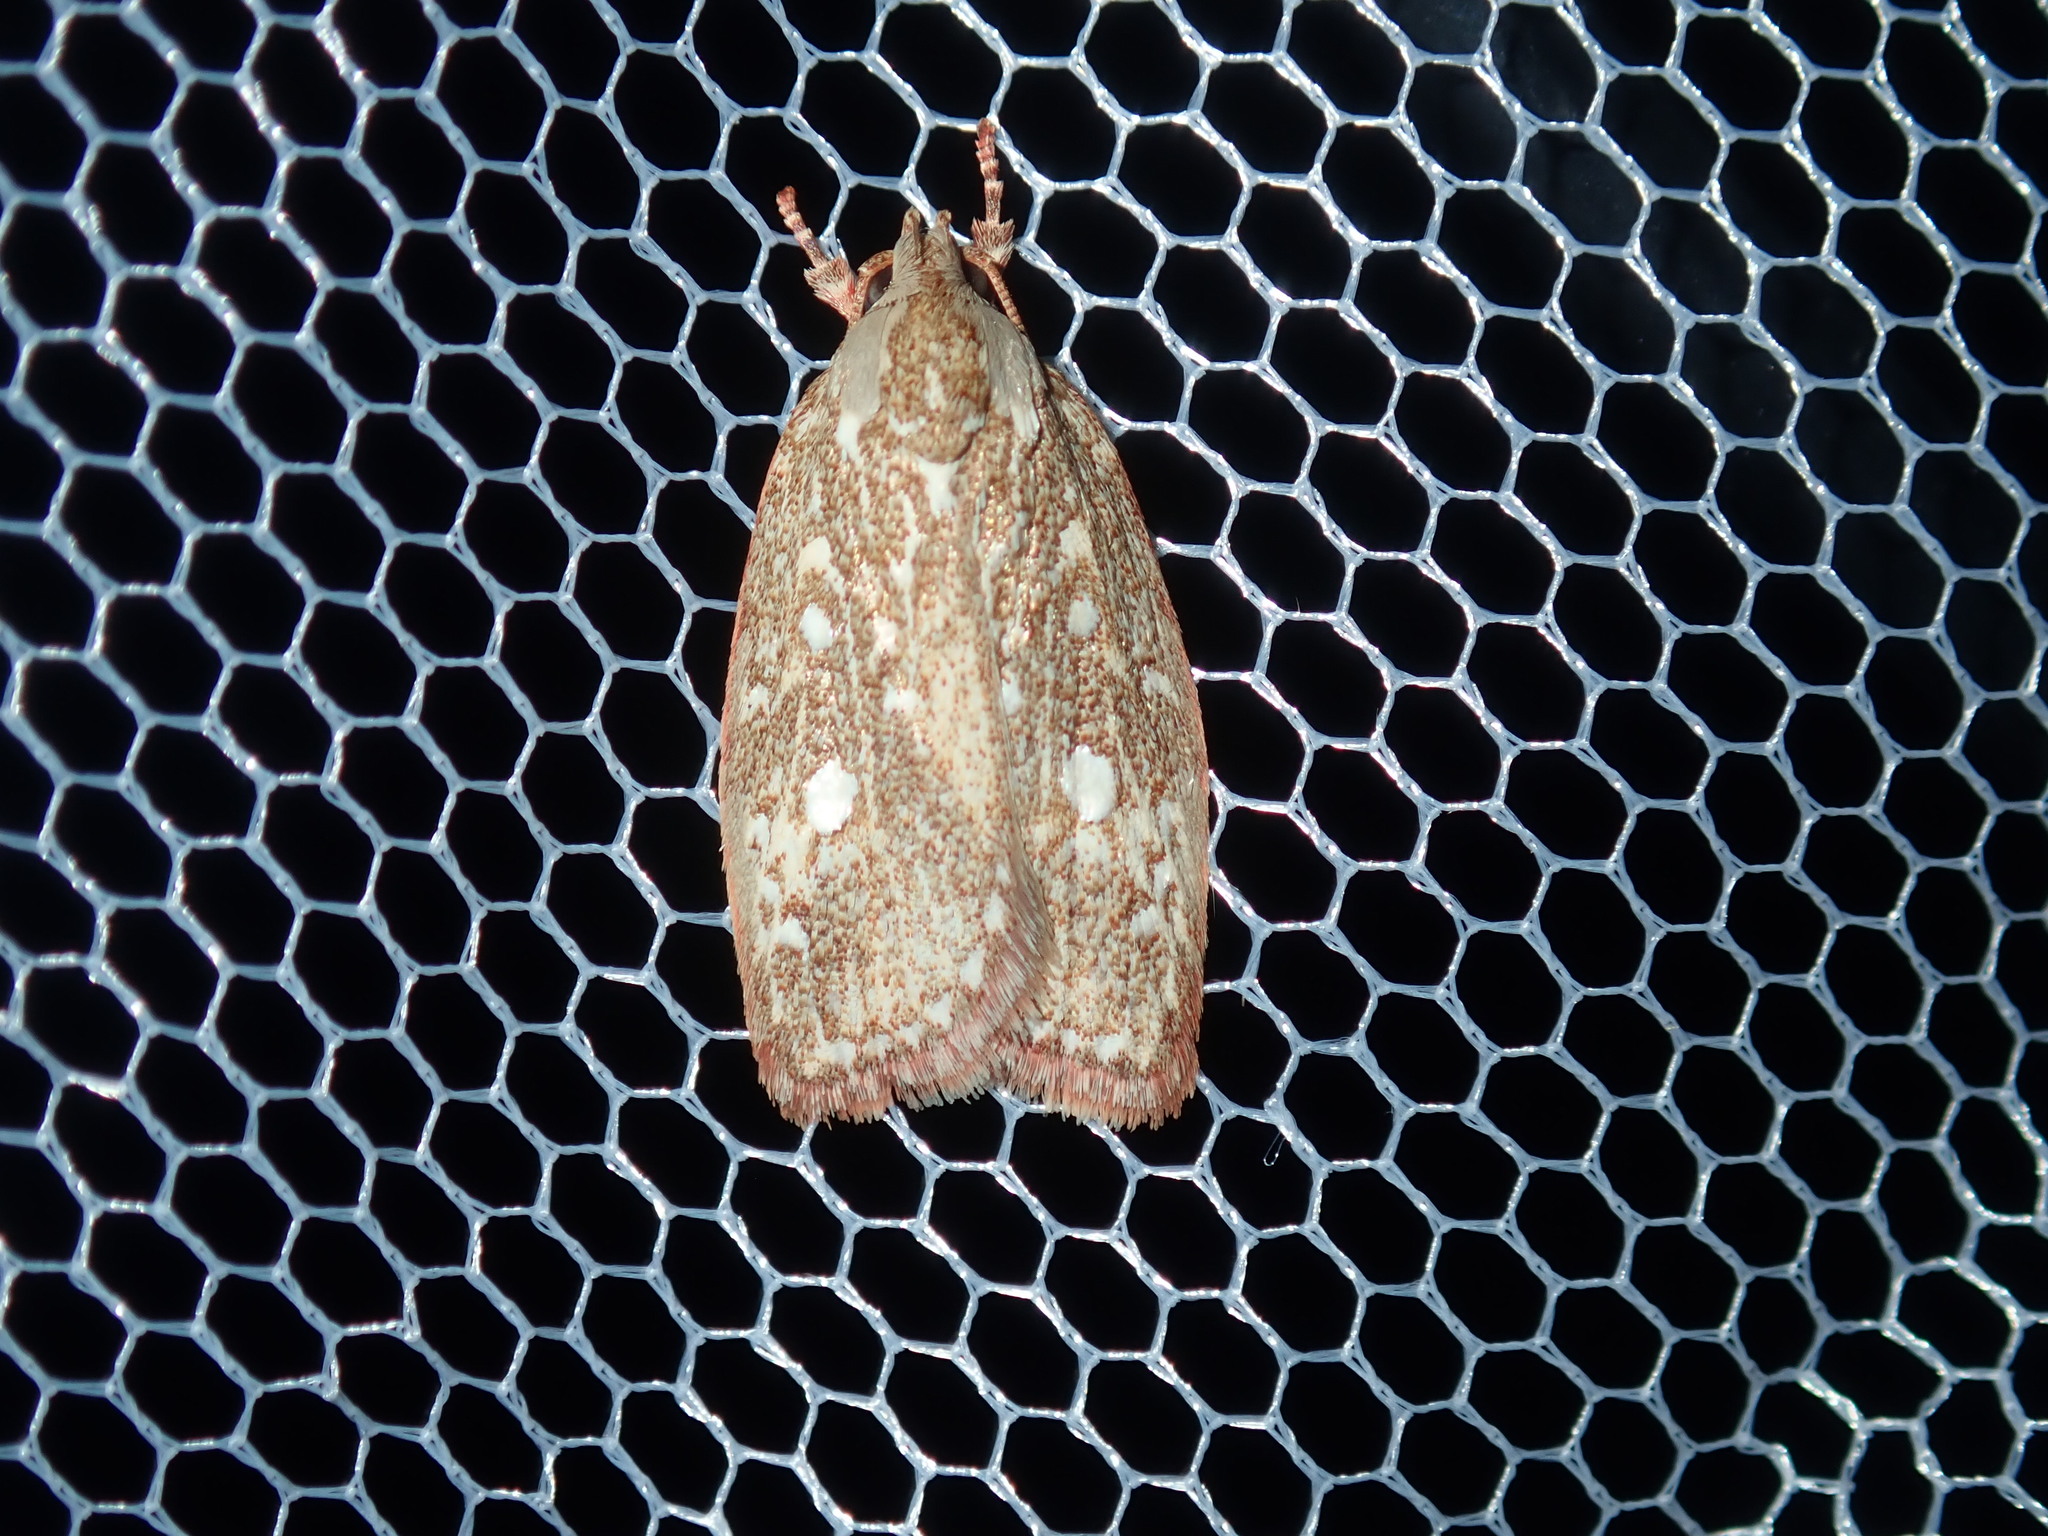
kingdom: Animalia
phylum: Arthropoda
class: Insecta
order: Lepidoptera
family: Oecophoridae
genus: Euchaetis
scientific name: Euchaetis metallota
